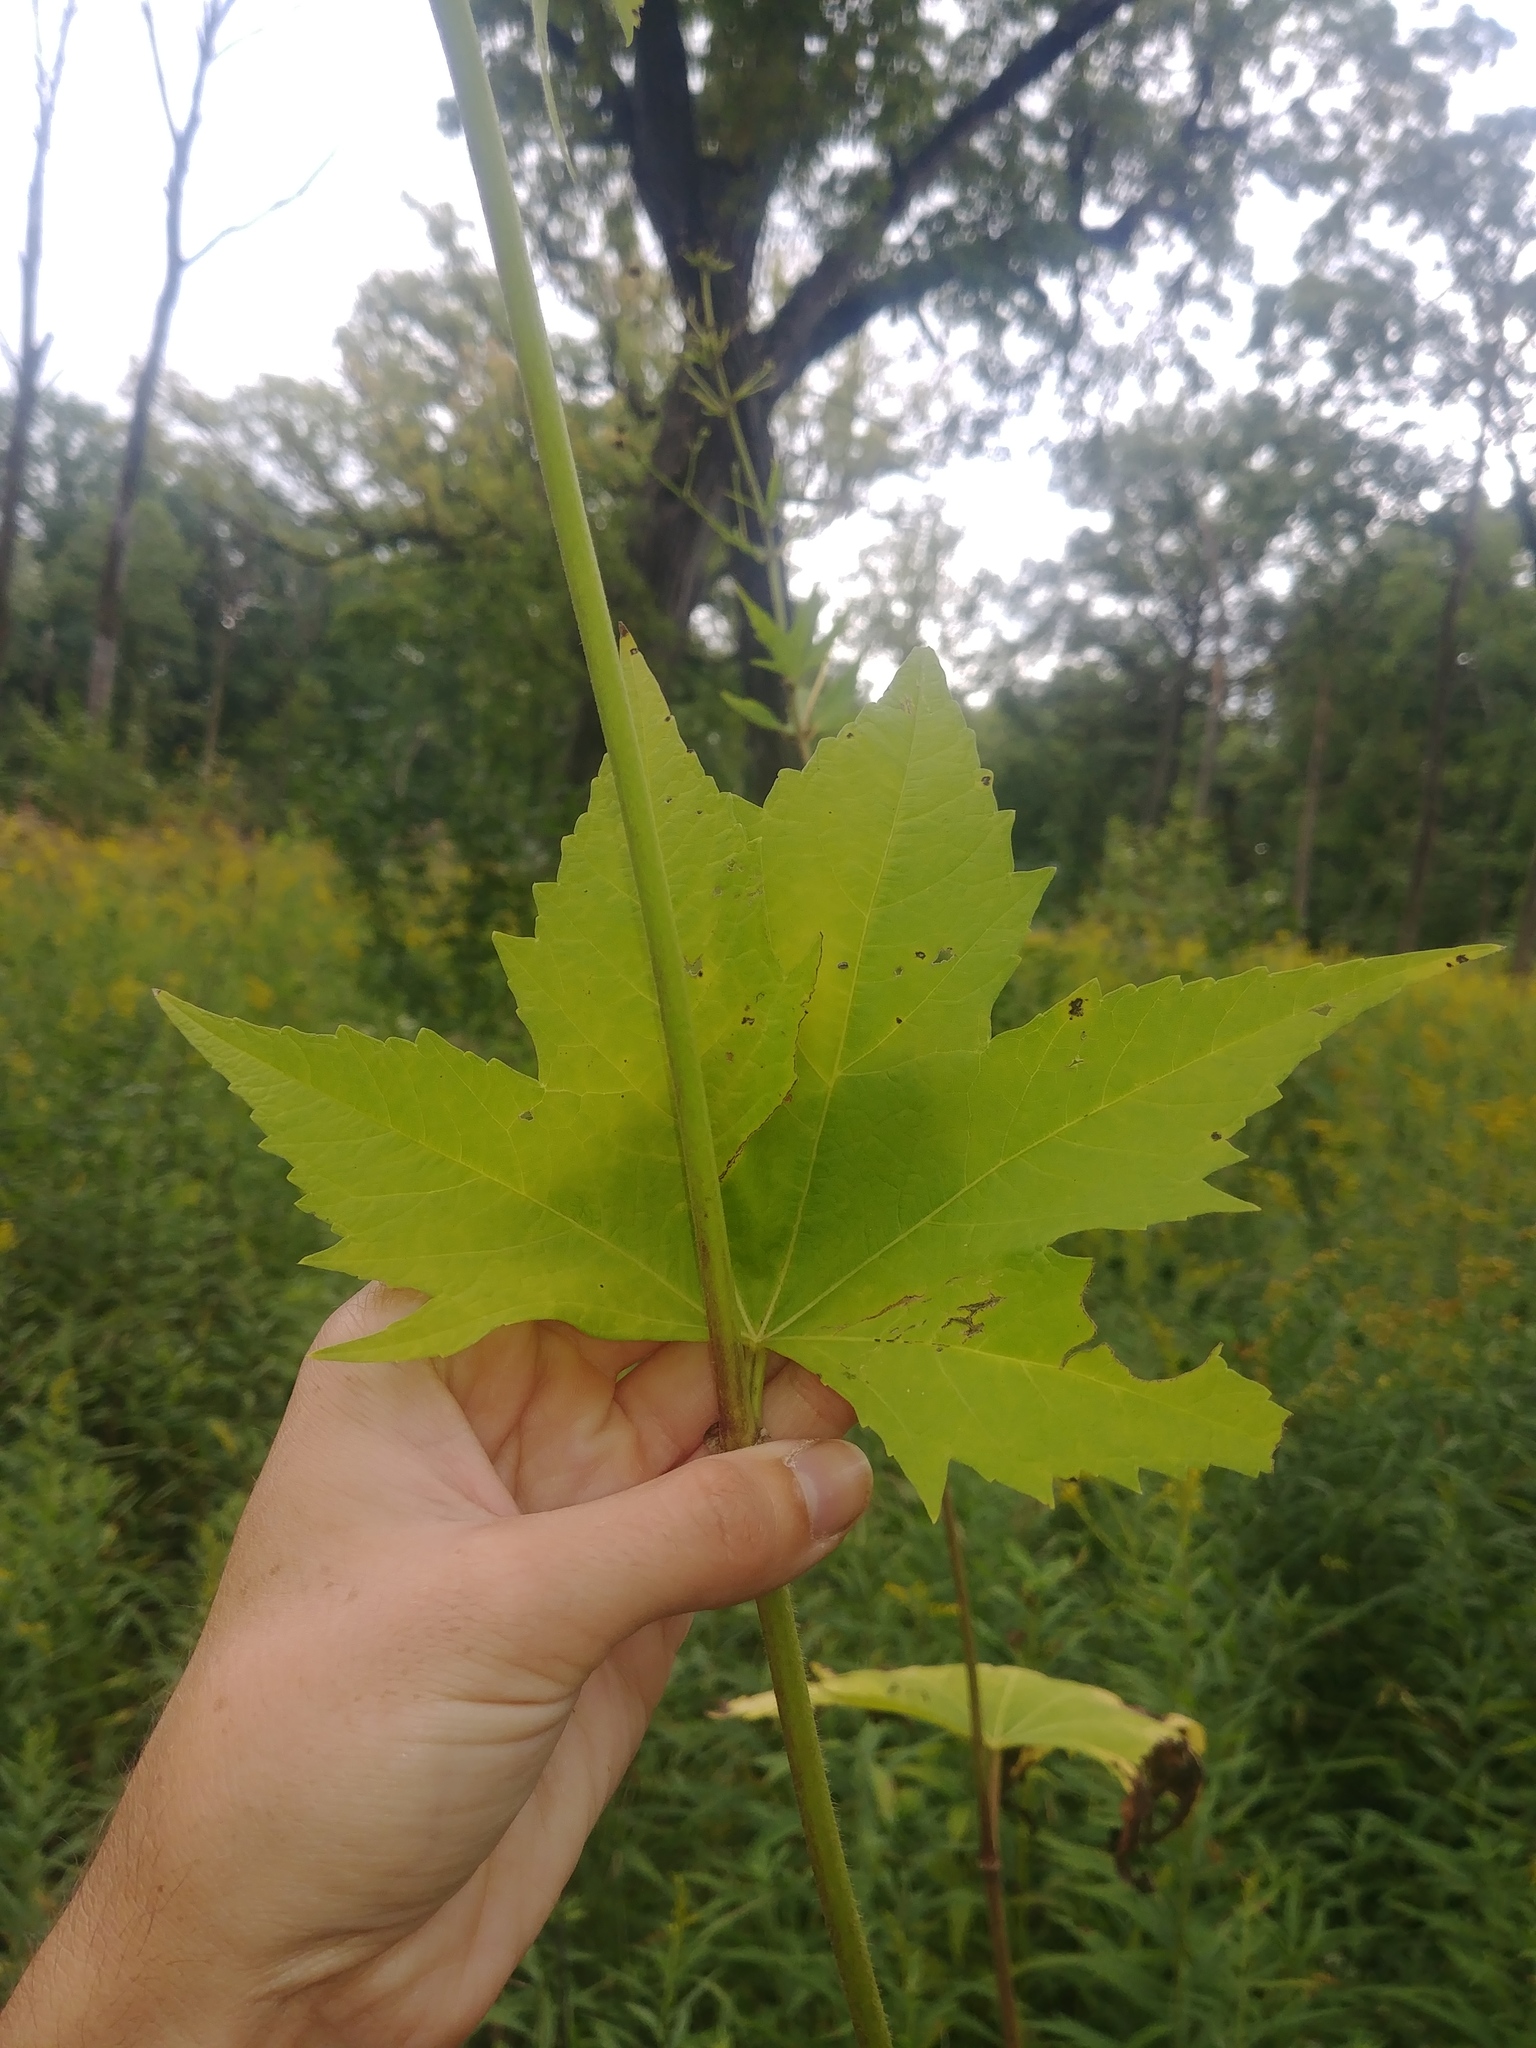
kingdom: Plantae
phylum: Tracheophyta
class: Magnoliopsida
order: Malvales
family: Malvaceae
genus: Napaea
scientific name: Napaea dioica
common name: Glade-mallow
